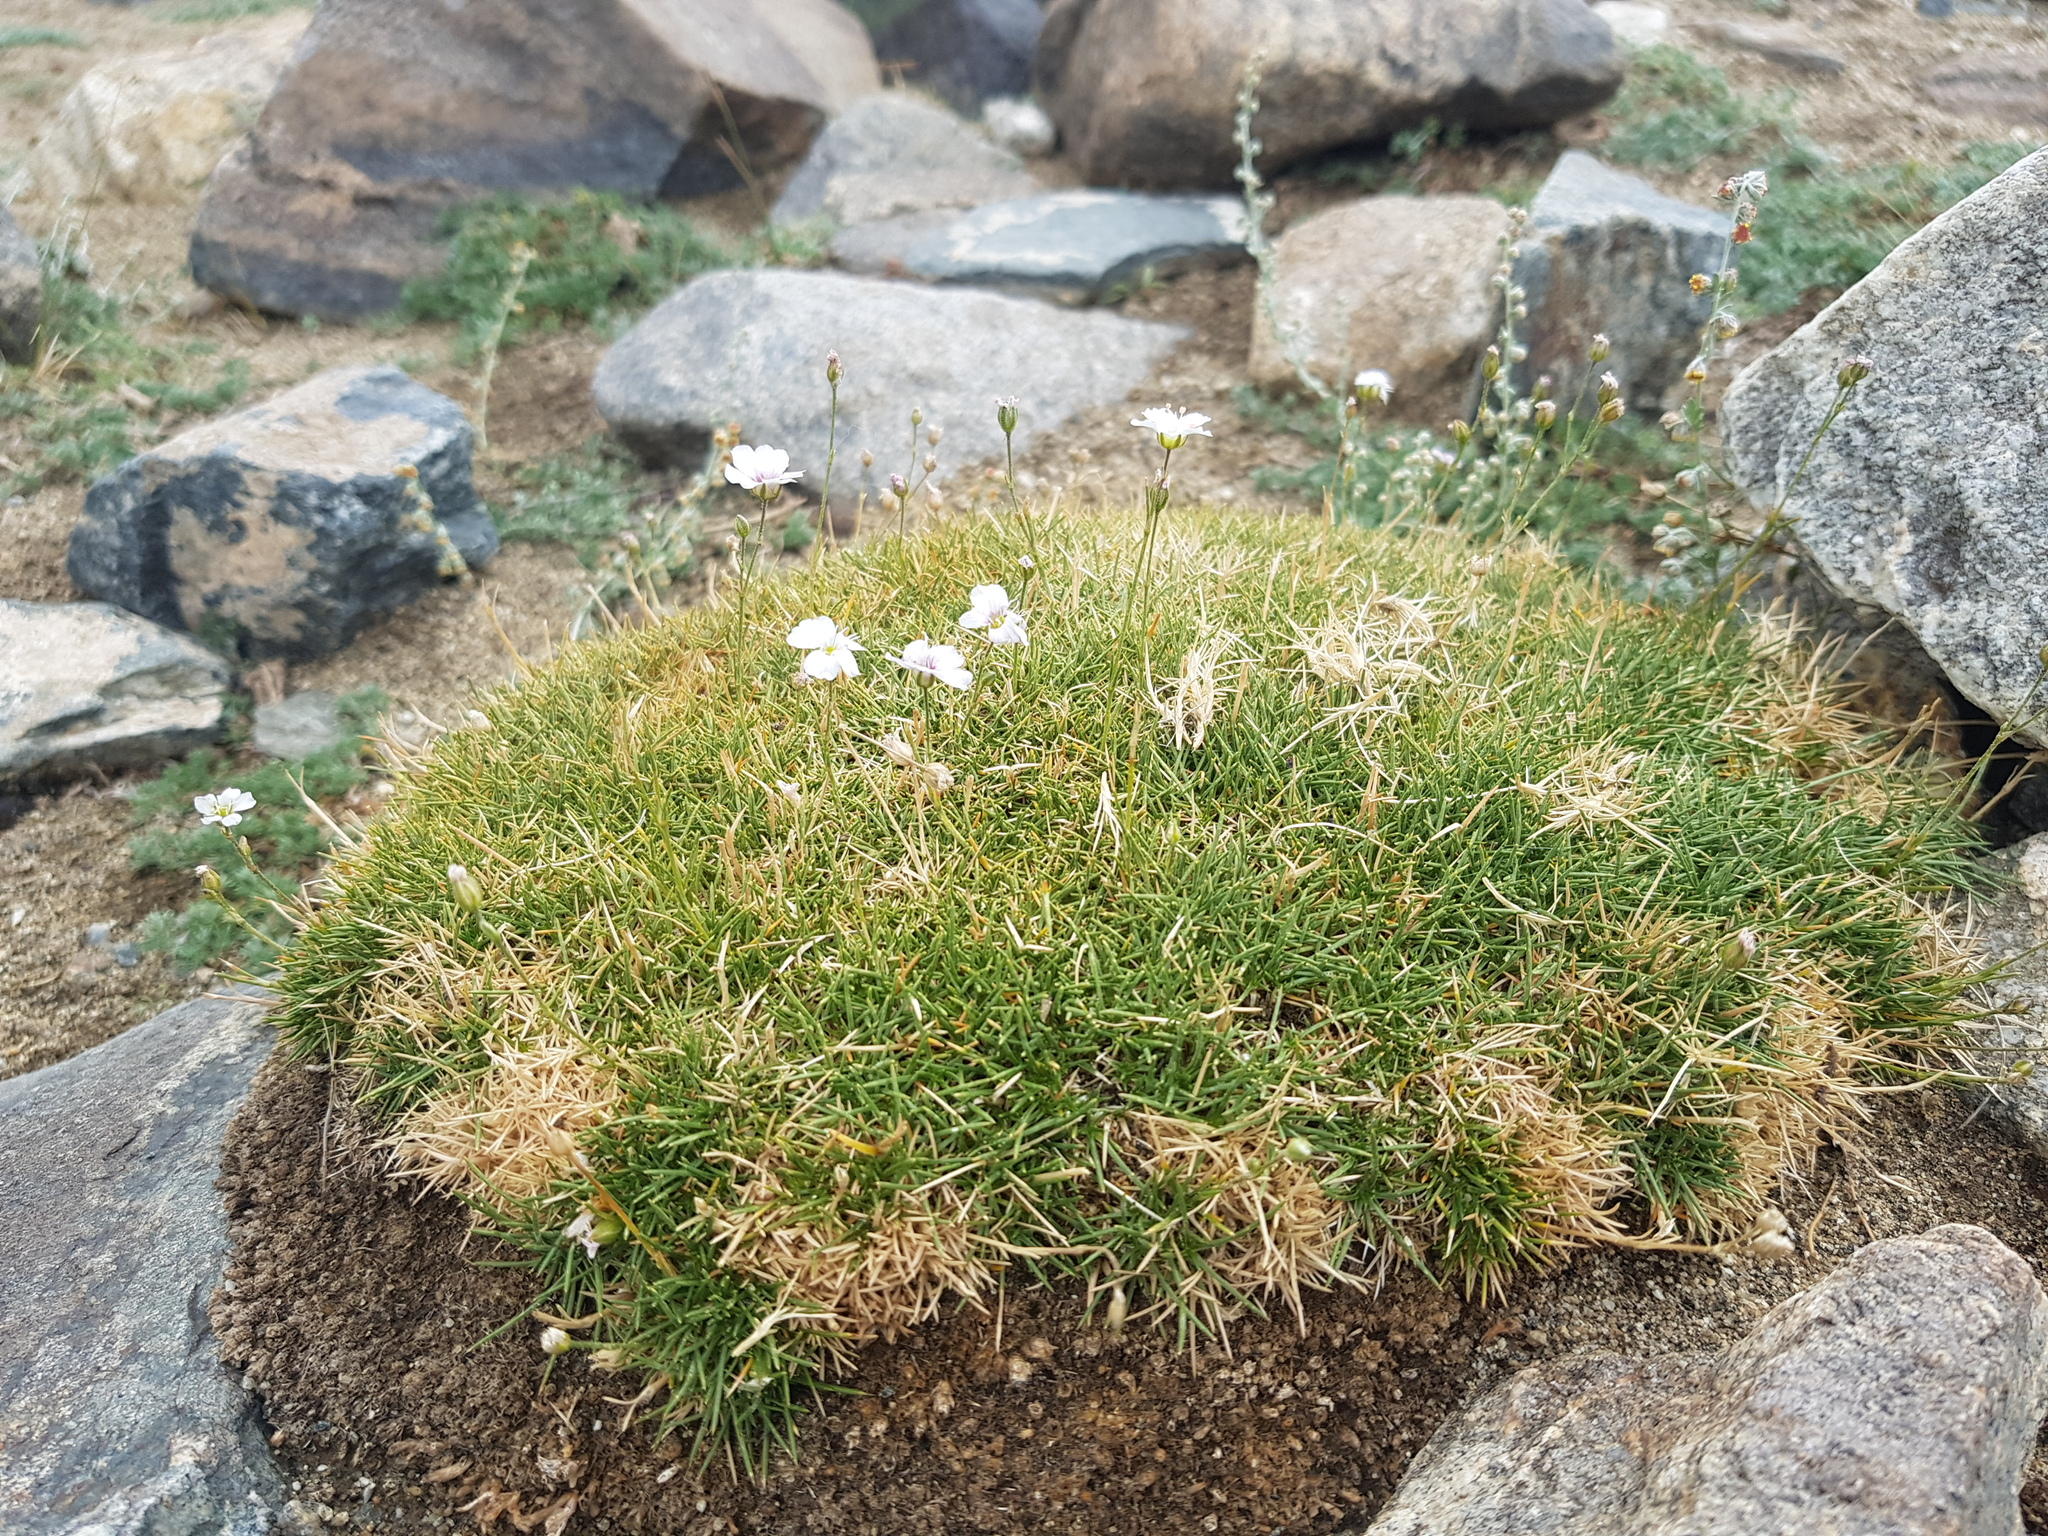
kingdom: Plantae
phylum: Tracheophyta
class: Magnoliopsida
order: Caryophyllales
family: Caryophyllaceae
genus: Eremogone
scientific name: Eremogone meyeri
